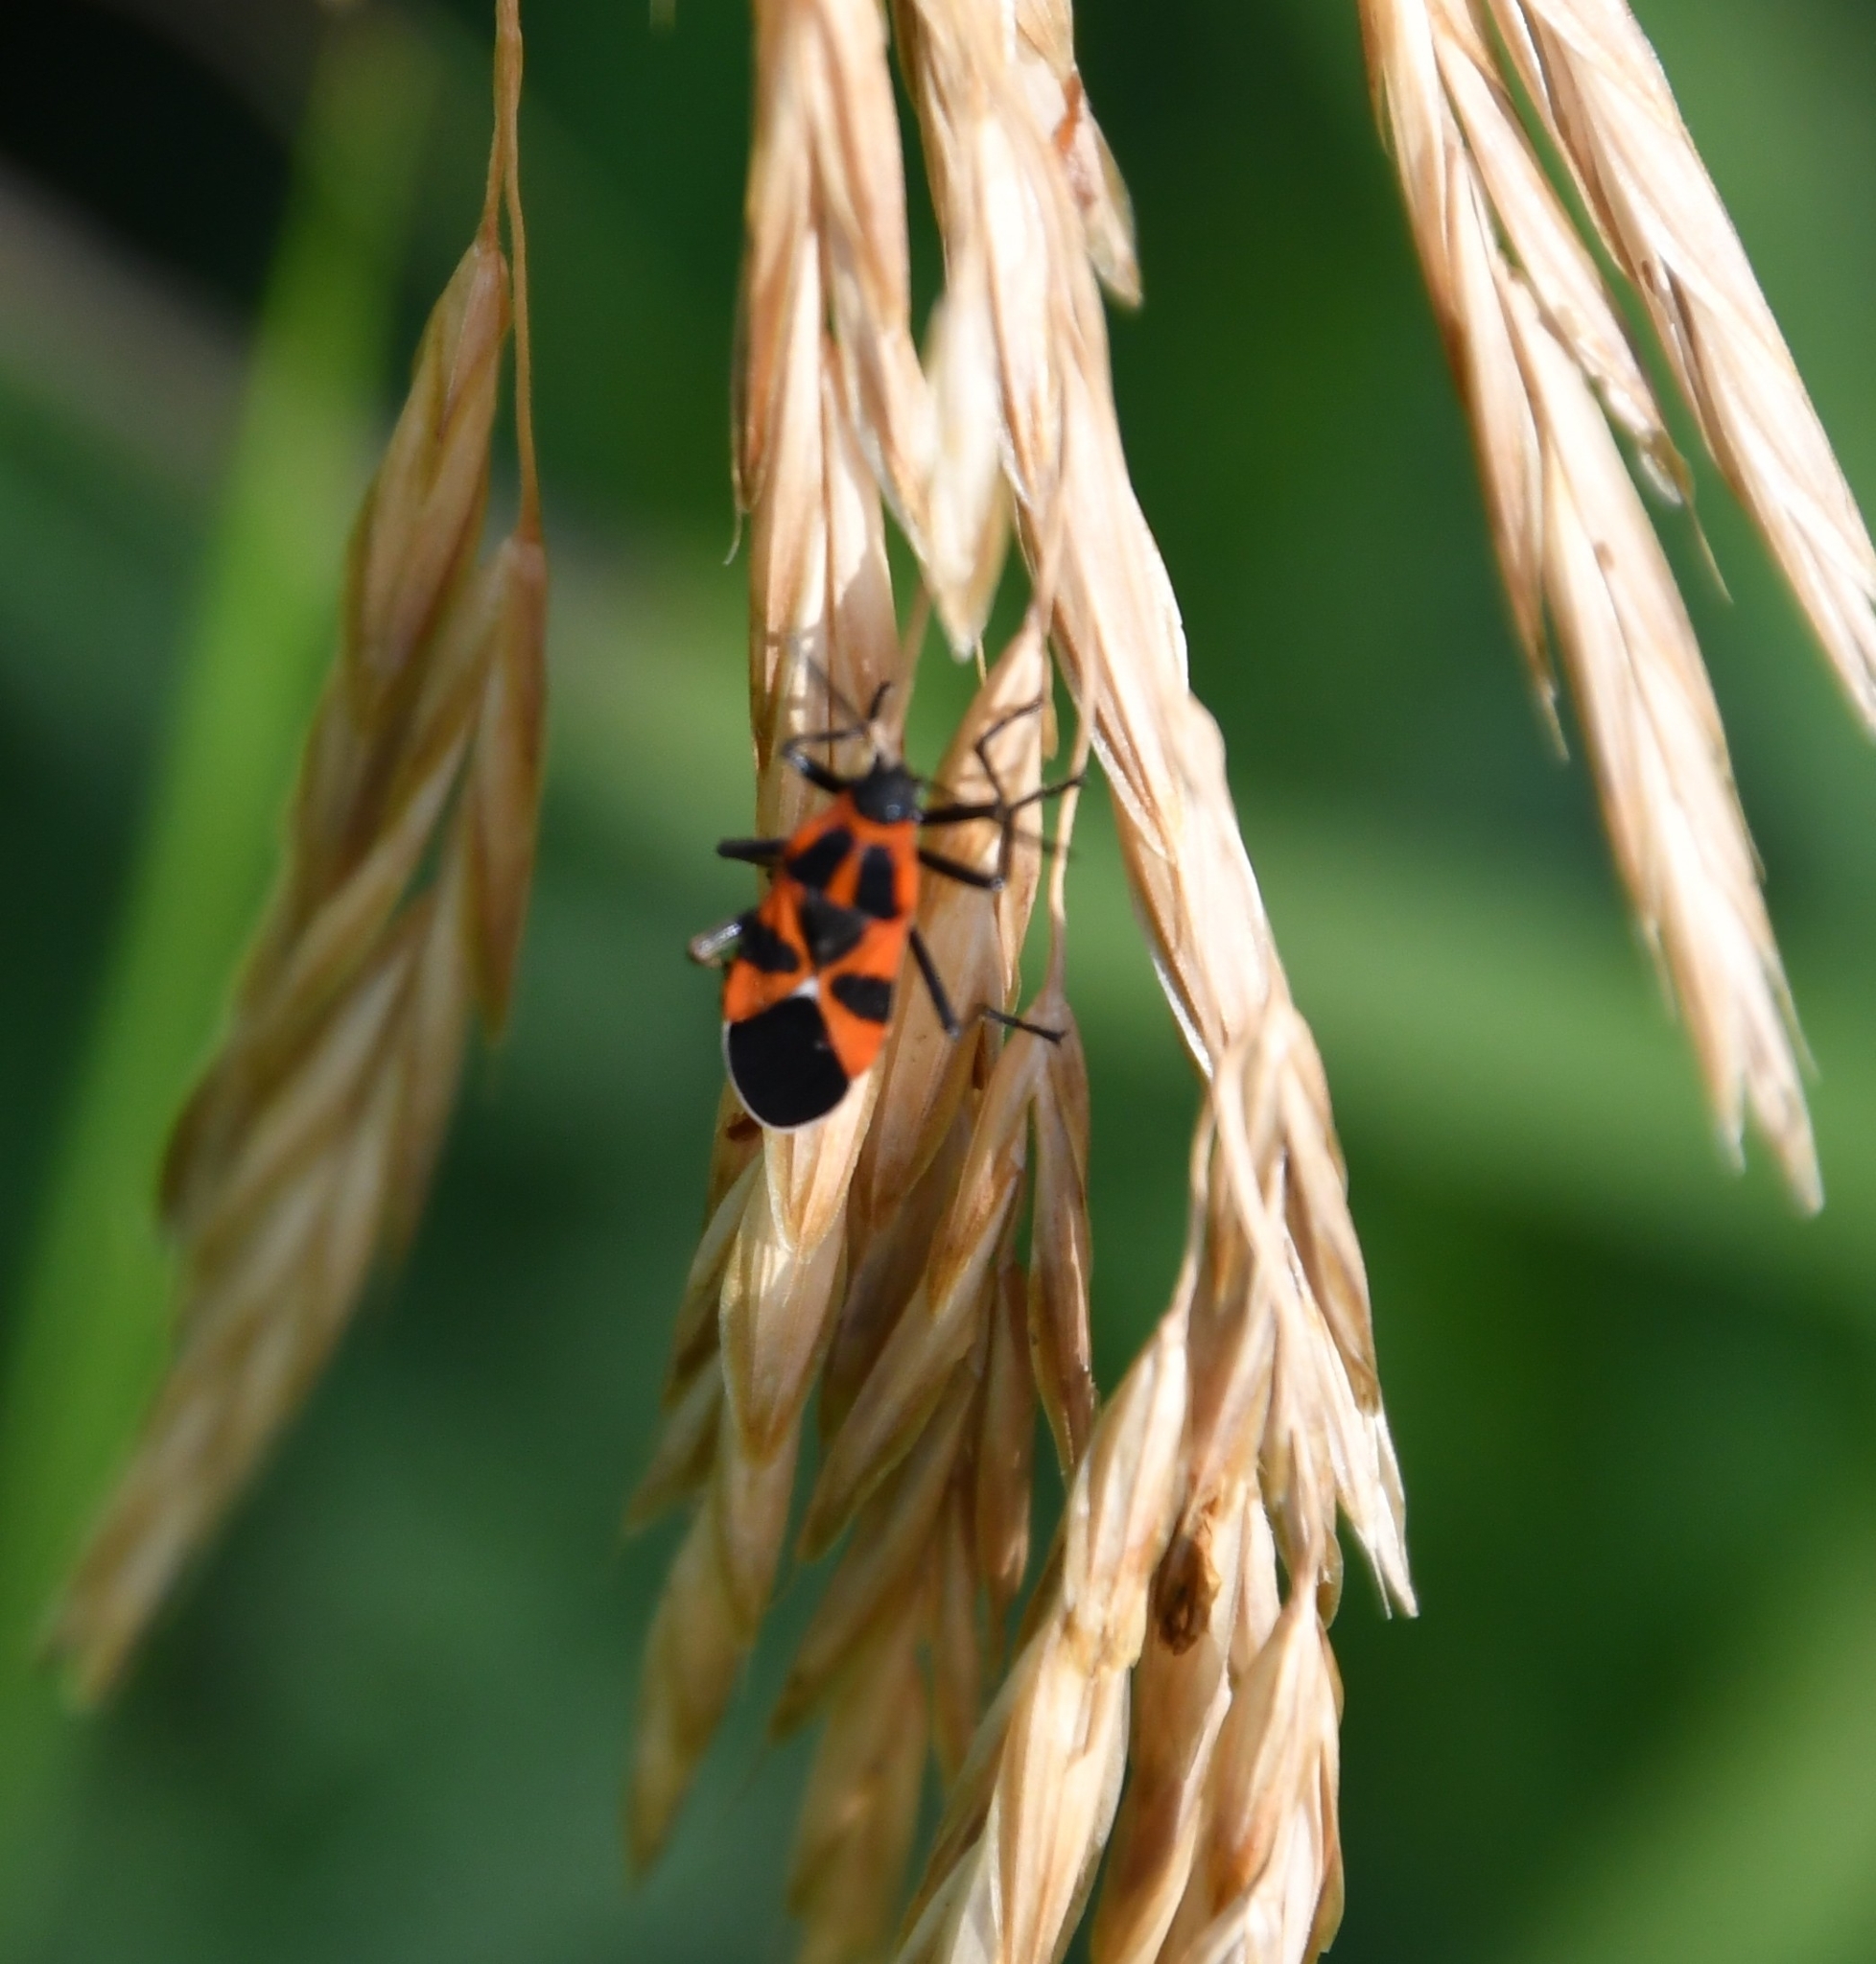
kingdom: Animalia
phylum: Arthropoda
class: Insecta
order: Hemiptera
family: Lygaeidae
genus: Tropidothorax
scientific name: Tropidothorax leucopterus
